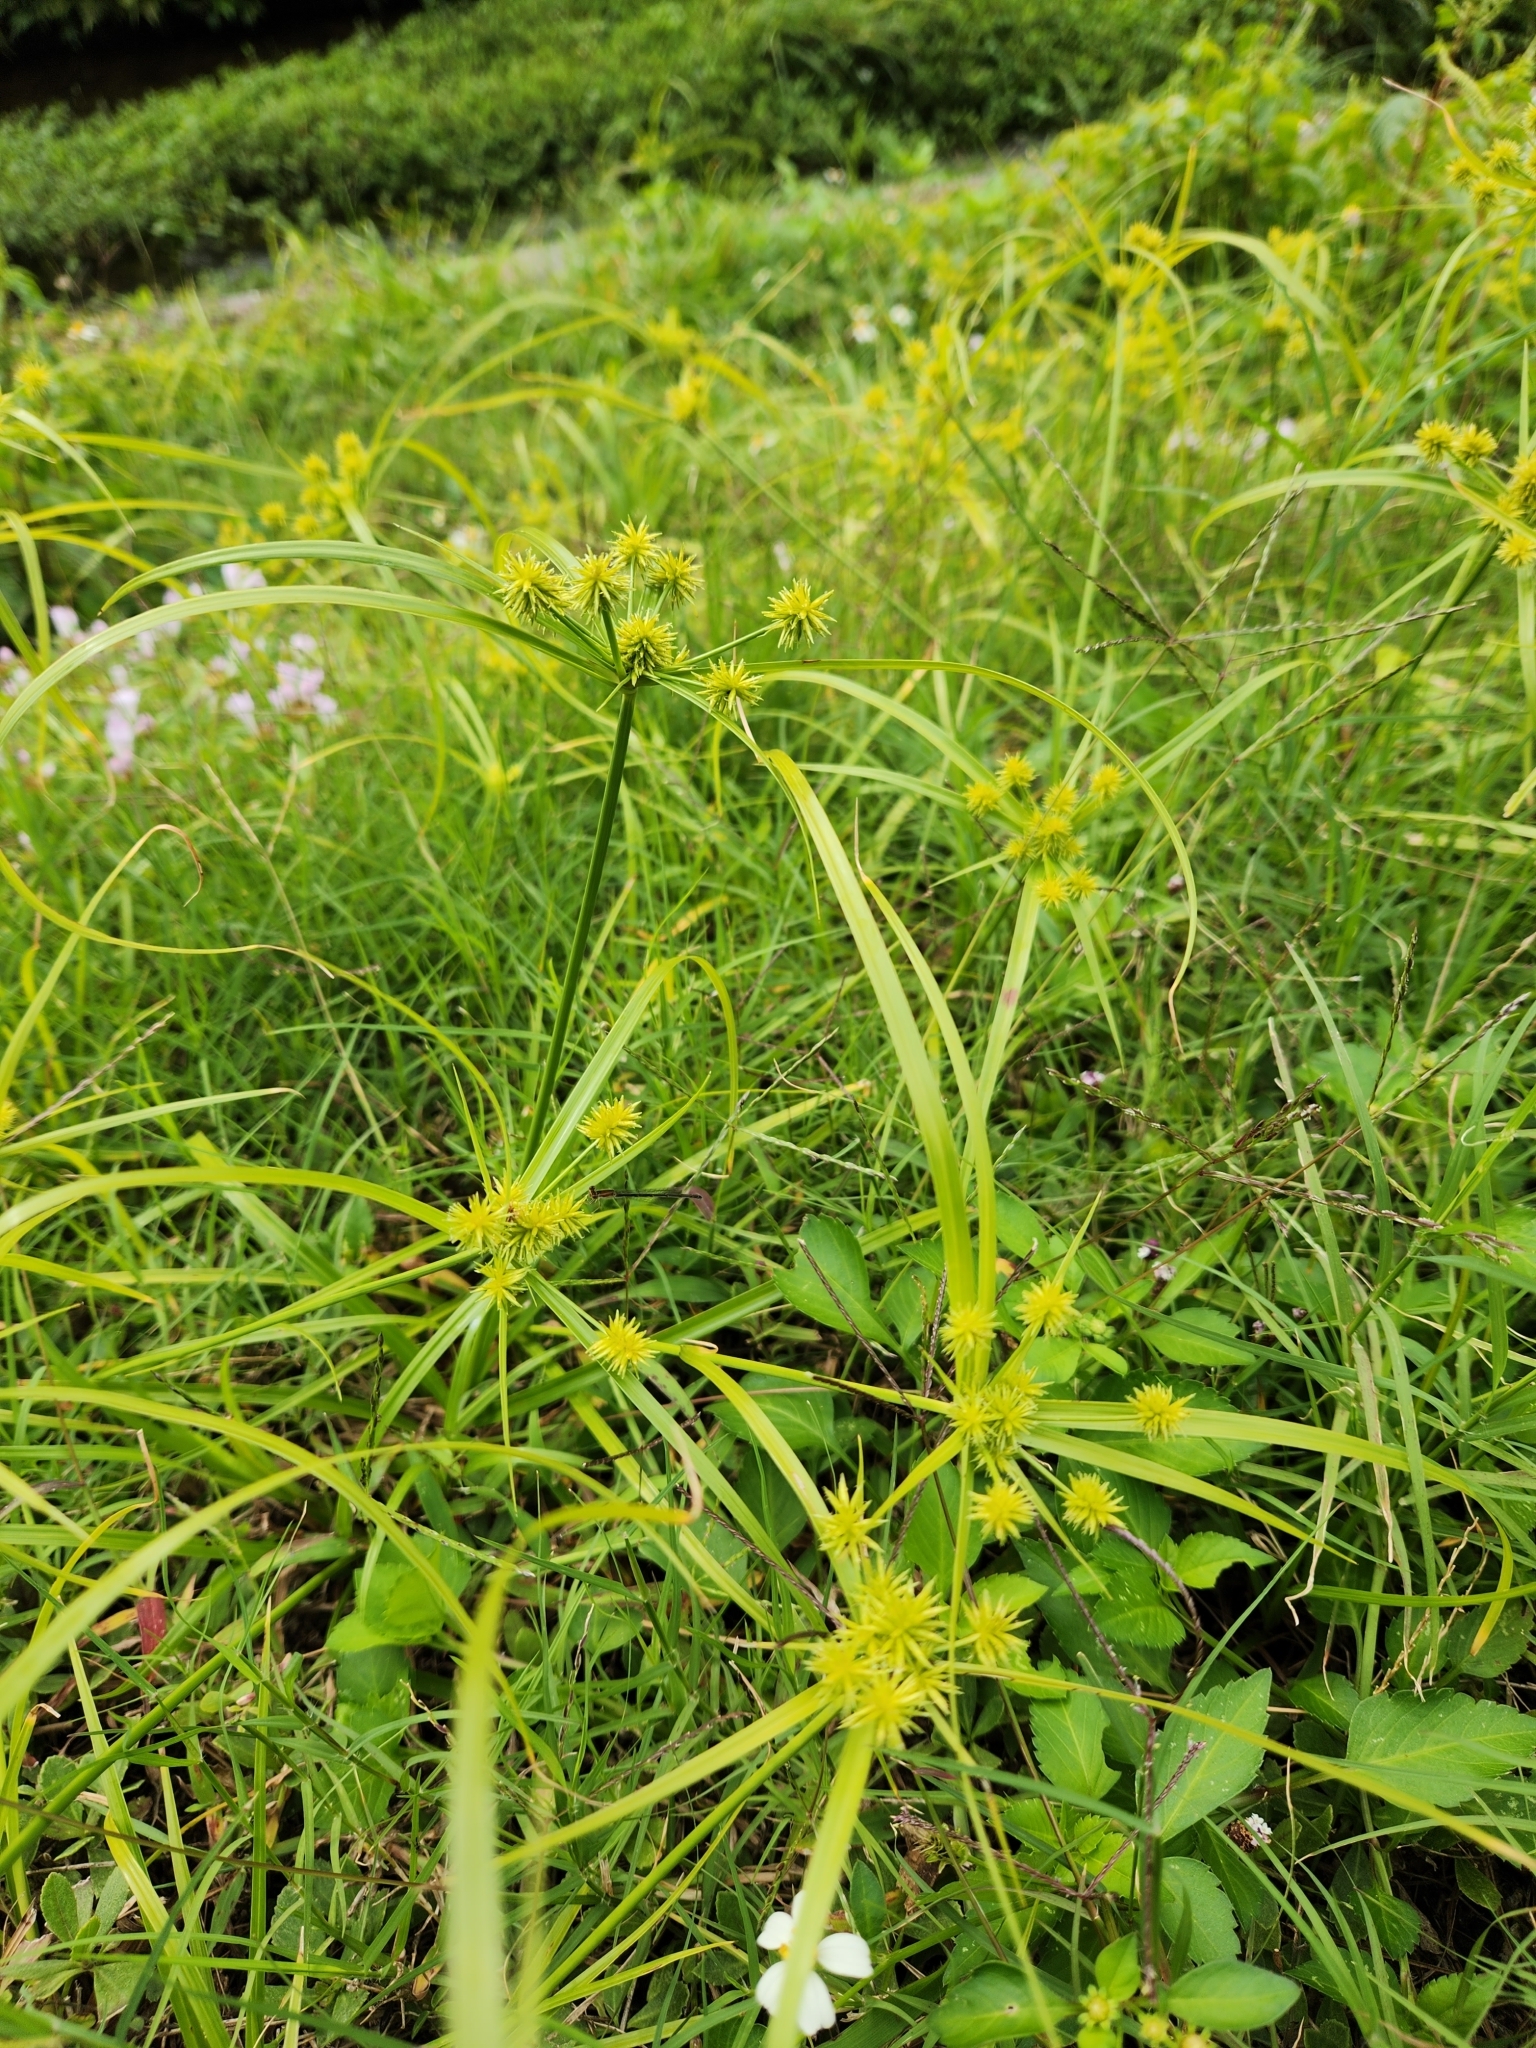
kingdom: Plantae
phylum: Tracheophyta
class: Liliopsida
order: Poales
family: Cyperaceae
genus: Cyperus
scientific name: Cyperus croceus
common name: Baldwin's flatsedge
